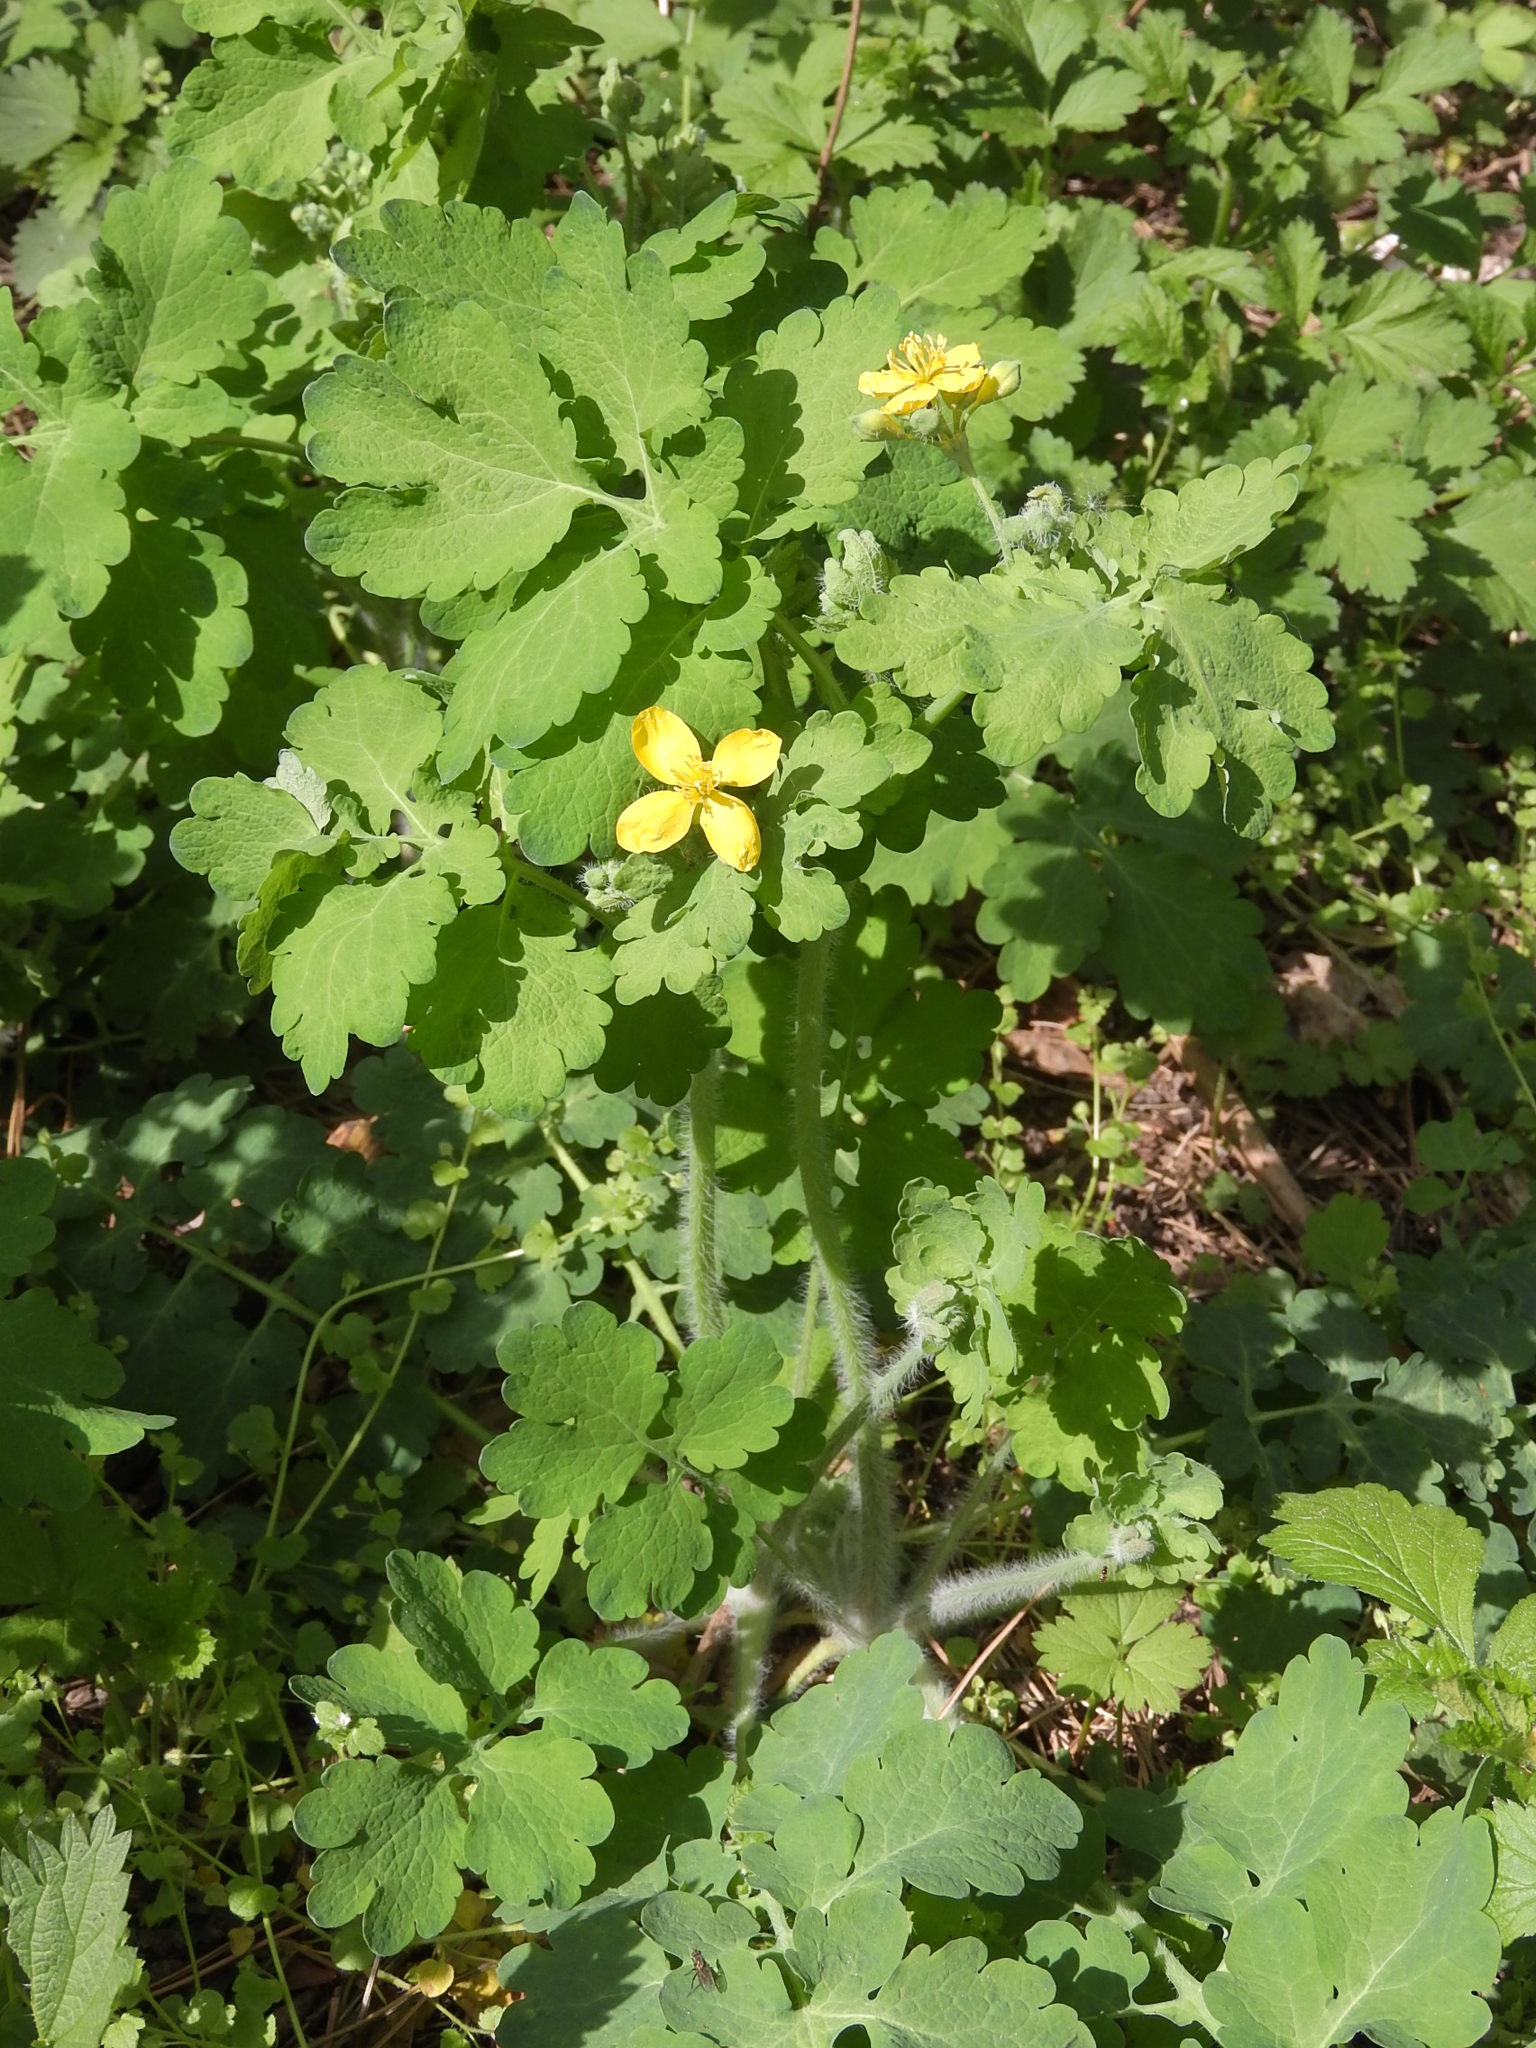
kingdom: Plantae
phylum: Tracheophyta
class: Magnoliopsida
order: Ranunculales
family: Papaveraceae
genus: Chelidonium
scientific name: Chelidonium majus
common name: Greater celandine
